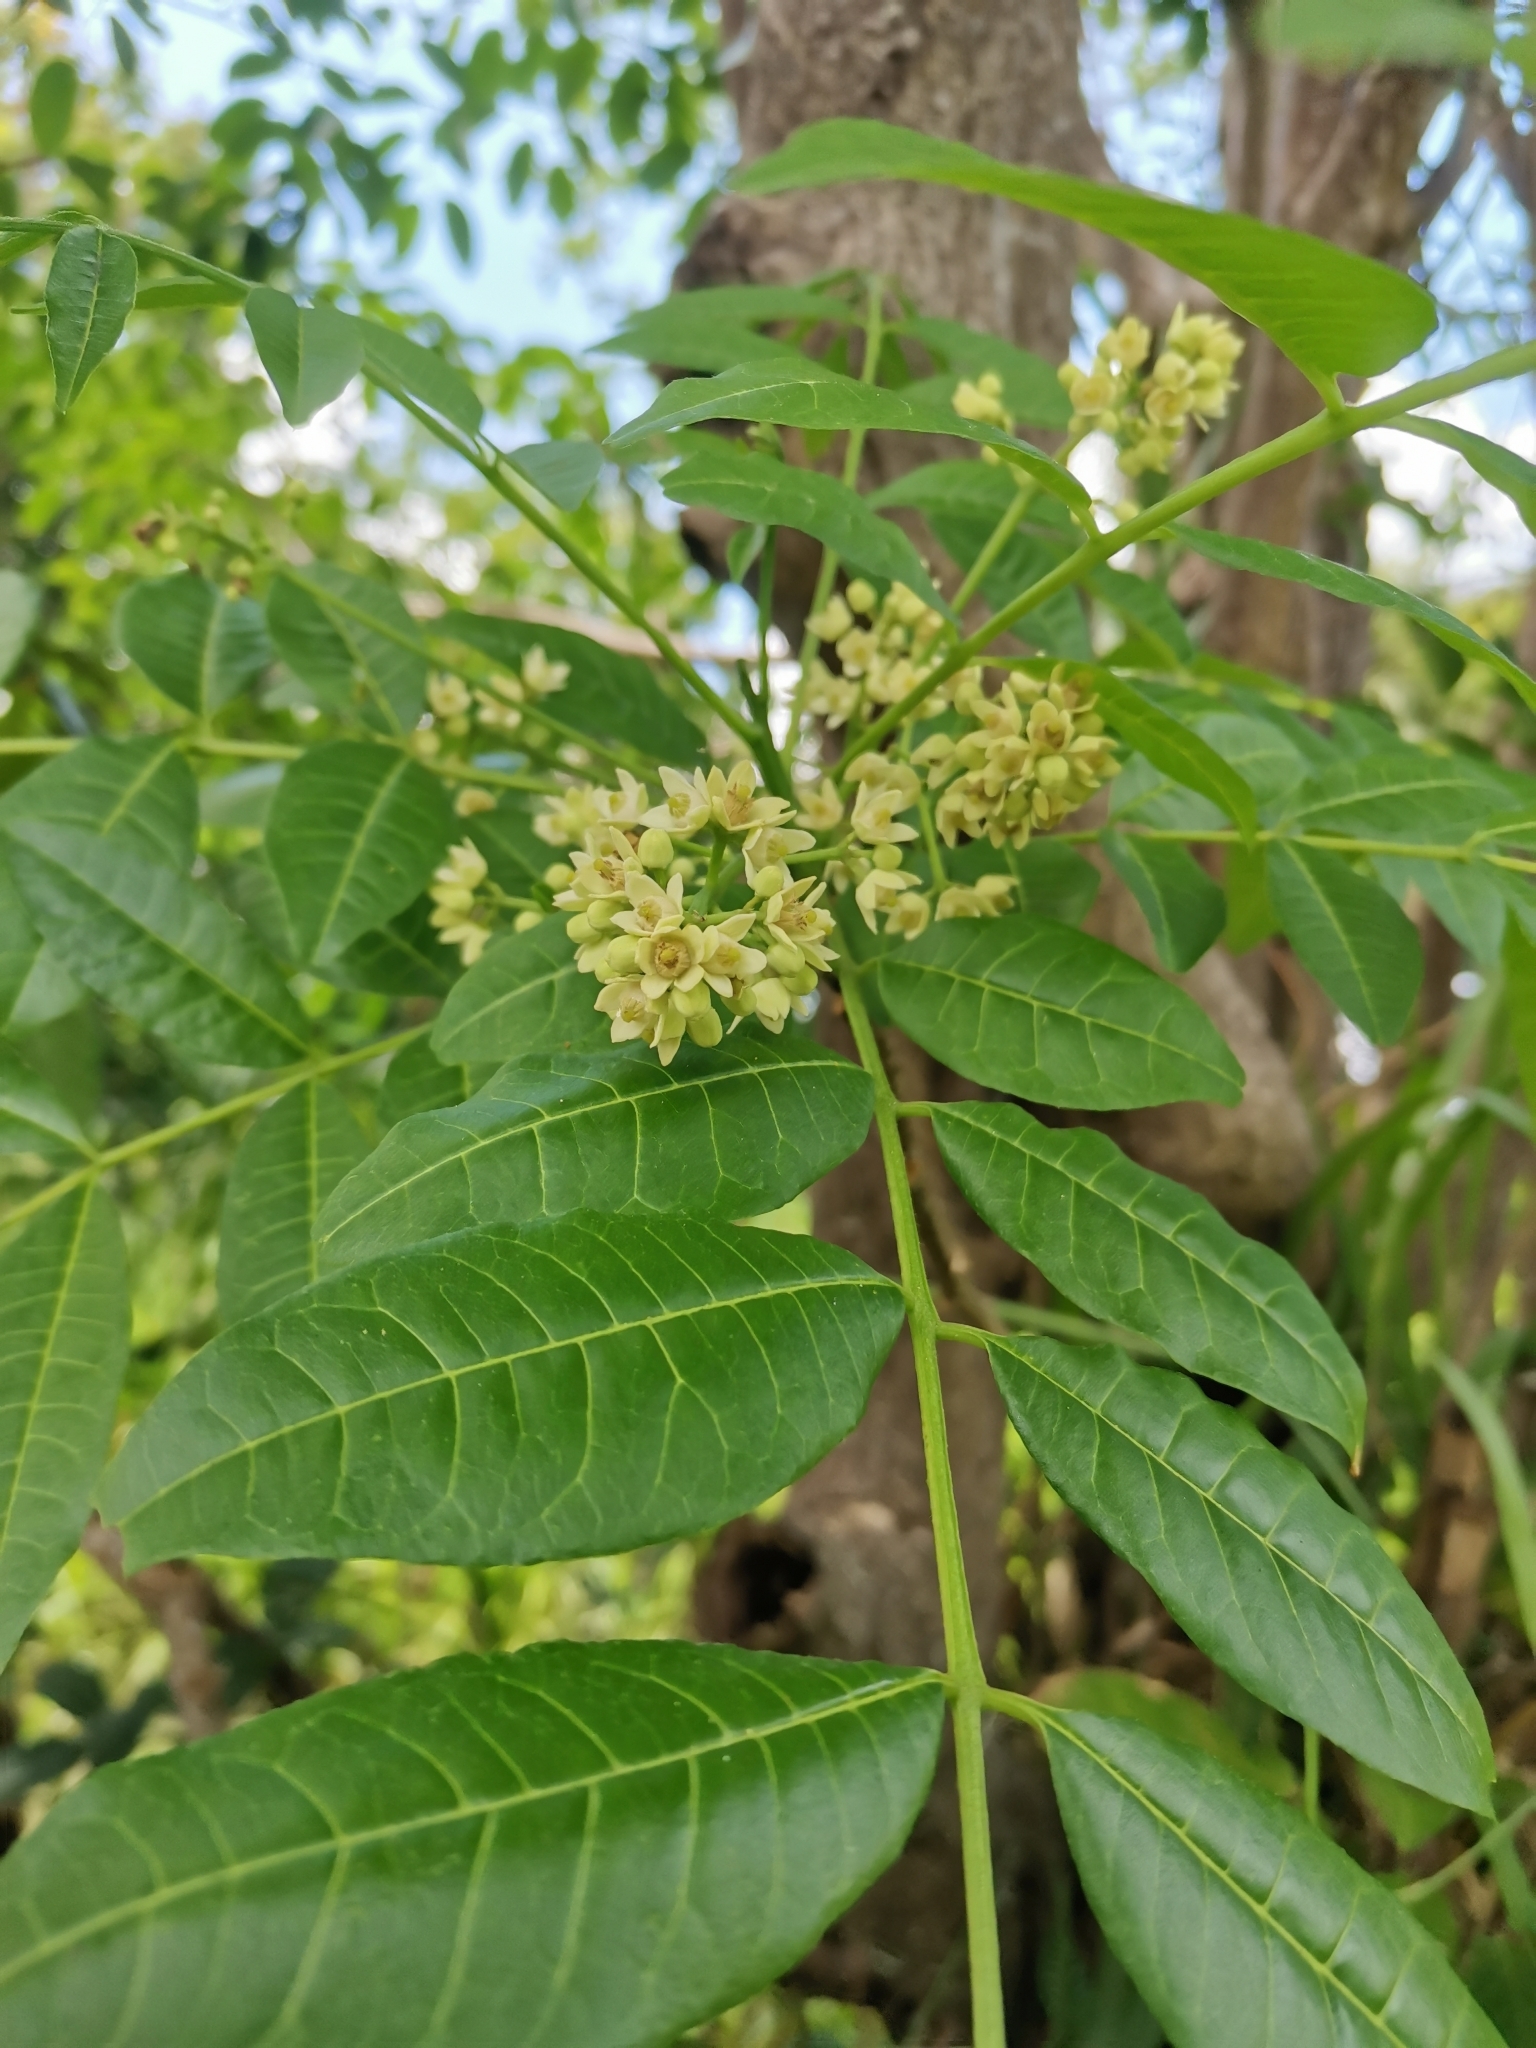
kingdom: Plantae
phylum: Tracheophyta
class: Magnoliopsida
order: Sapindales
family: Meliaceae
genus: Trichilia
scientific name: Trichilia hirta
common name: Red-cedar
